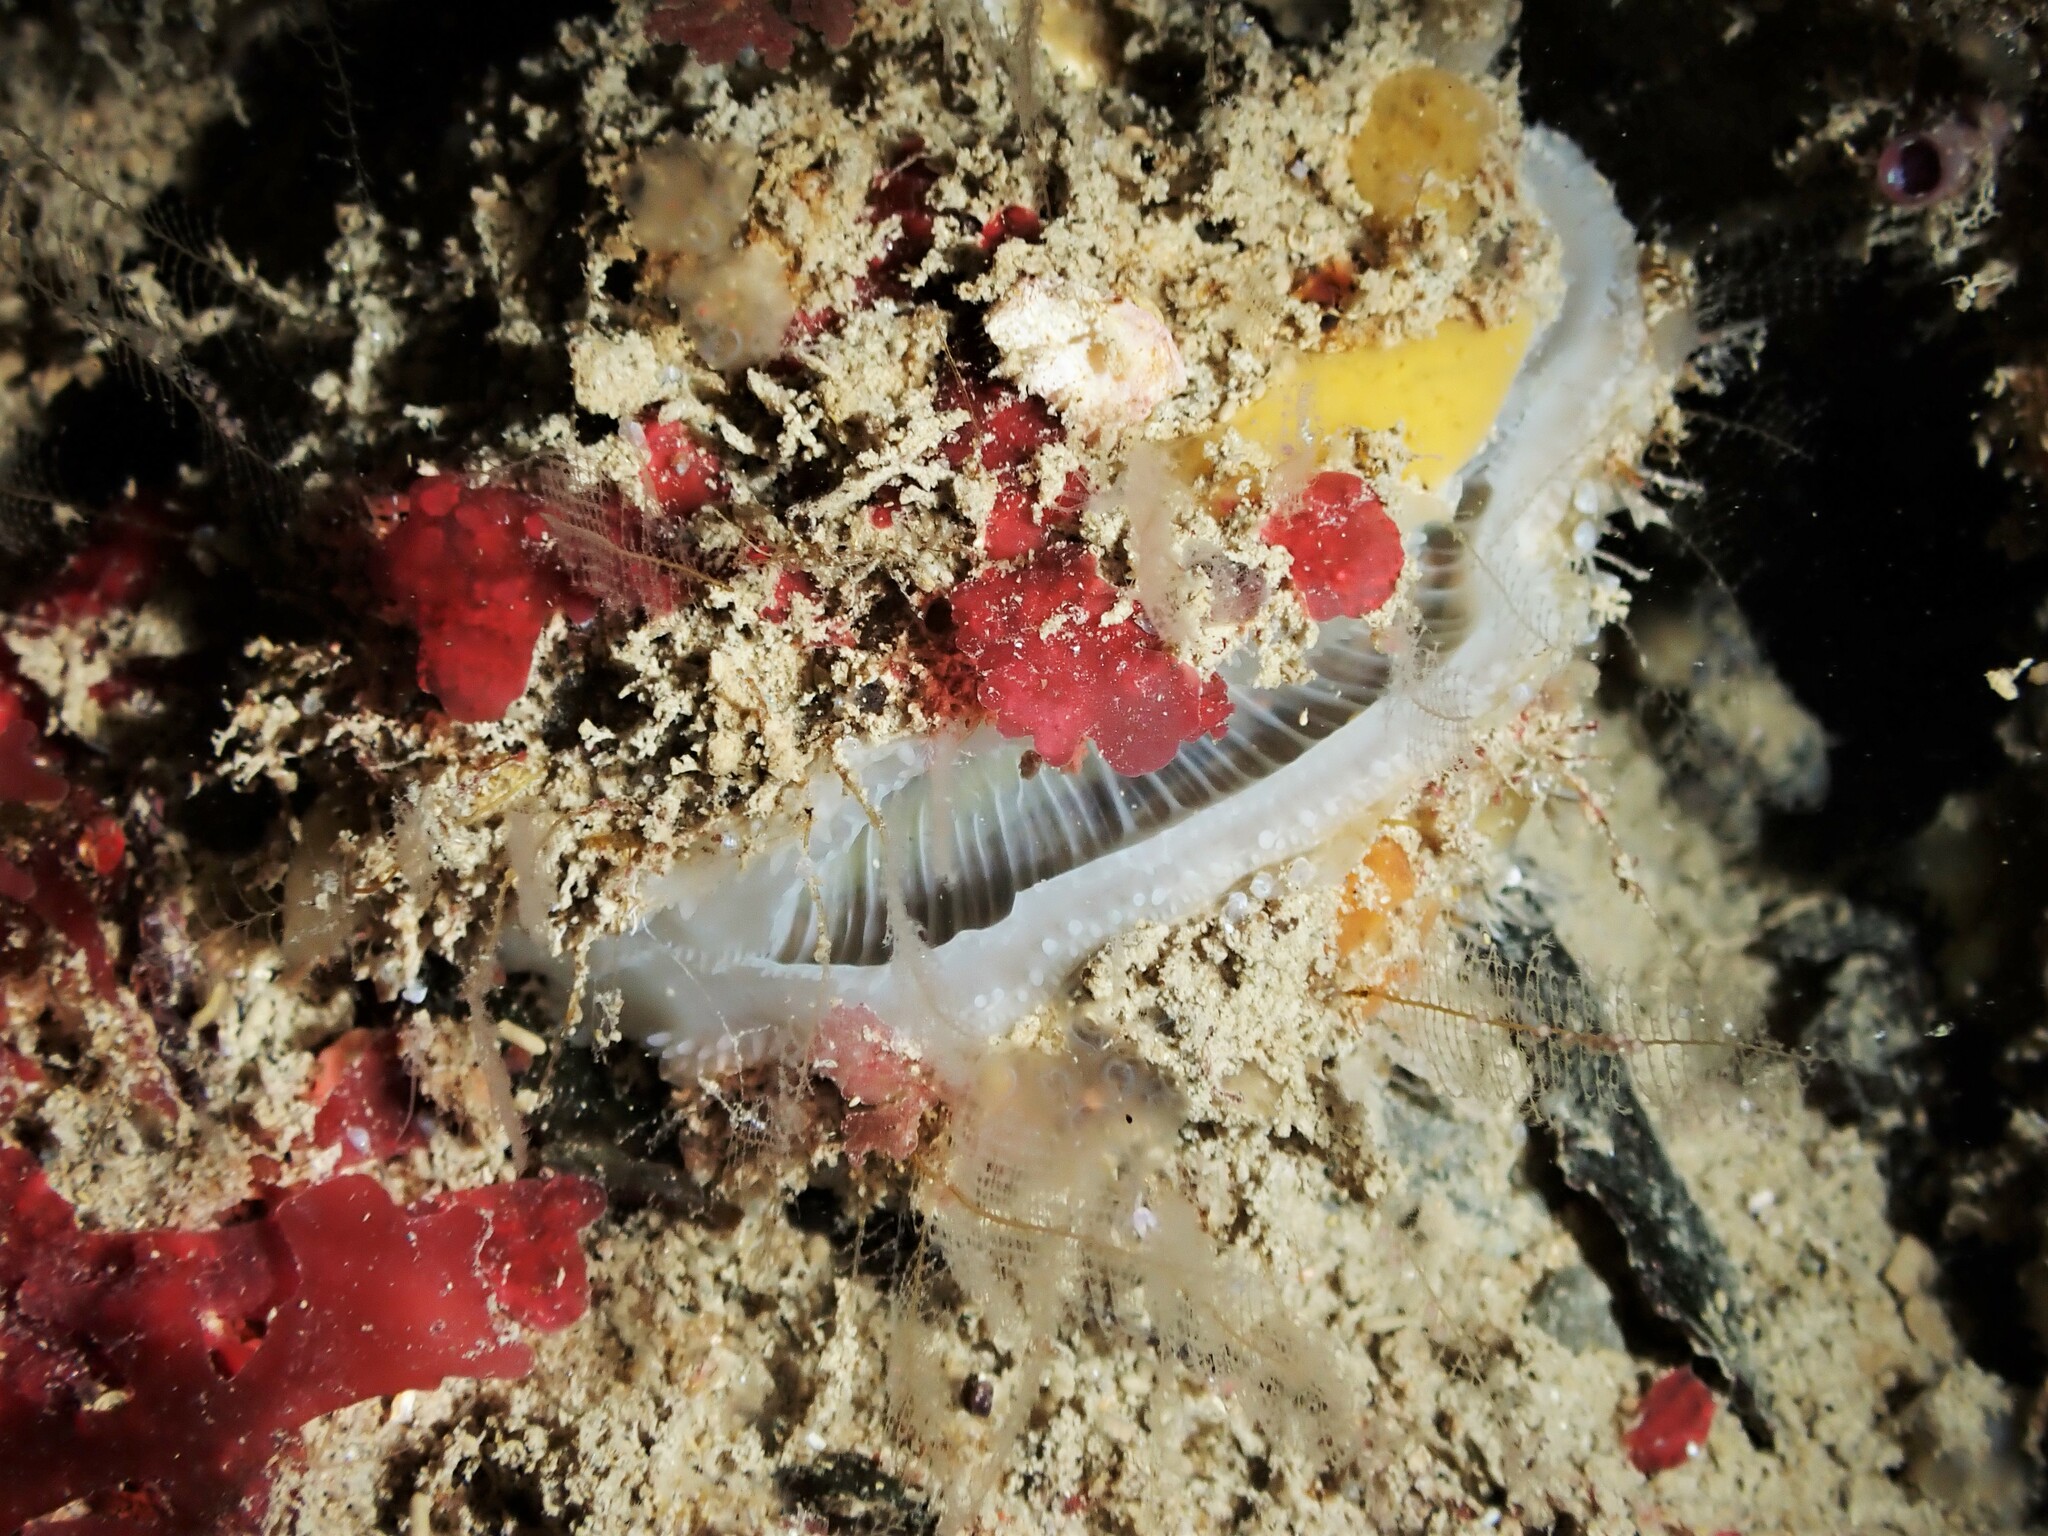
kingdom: Animalia
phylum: Mollusca
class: Bivalvia
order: Pectinida
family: Anomiidae
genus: Anomia
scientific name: Anomia trigonopsis
